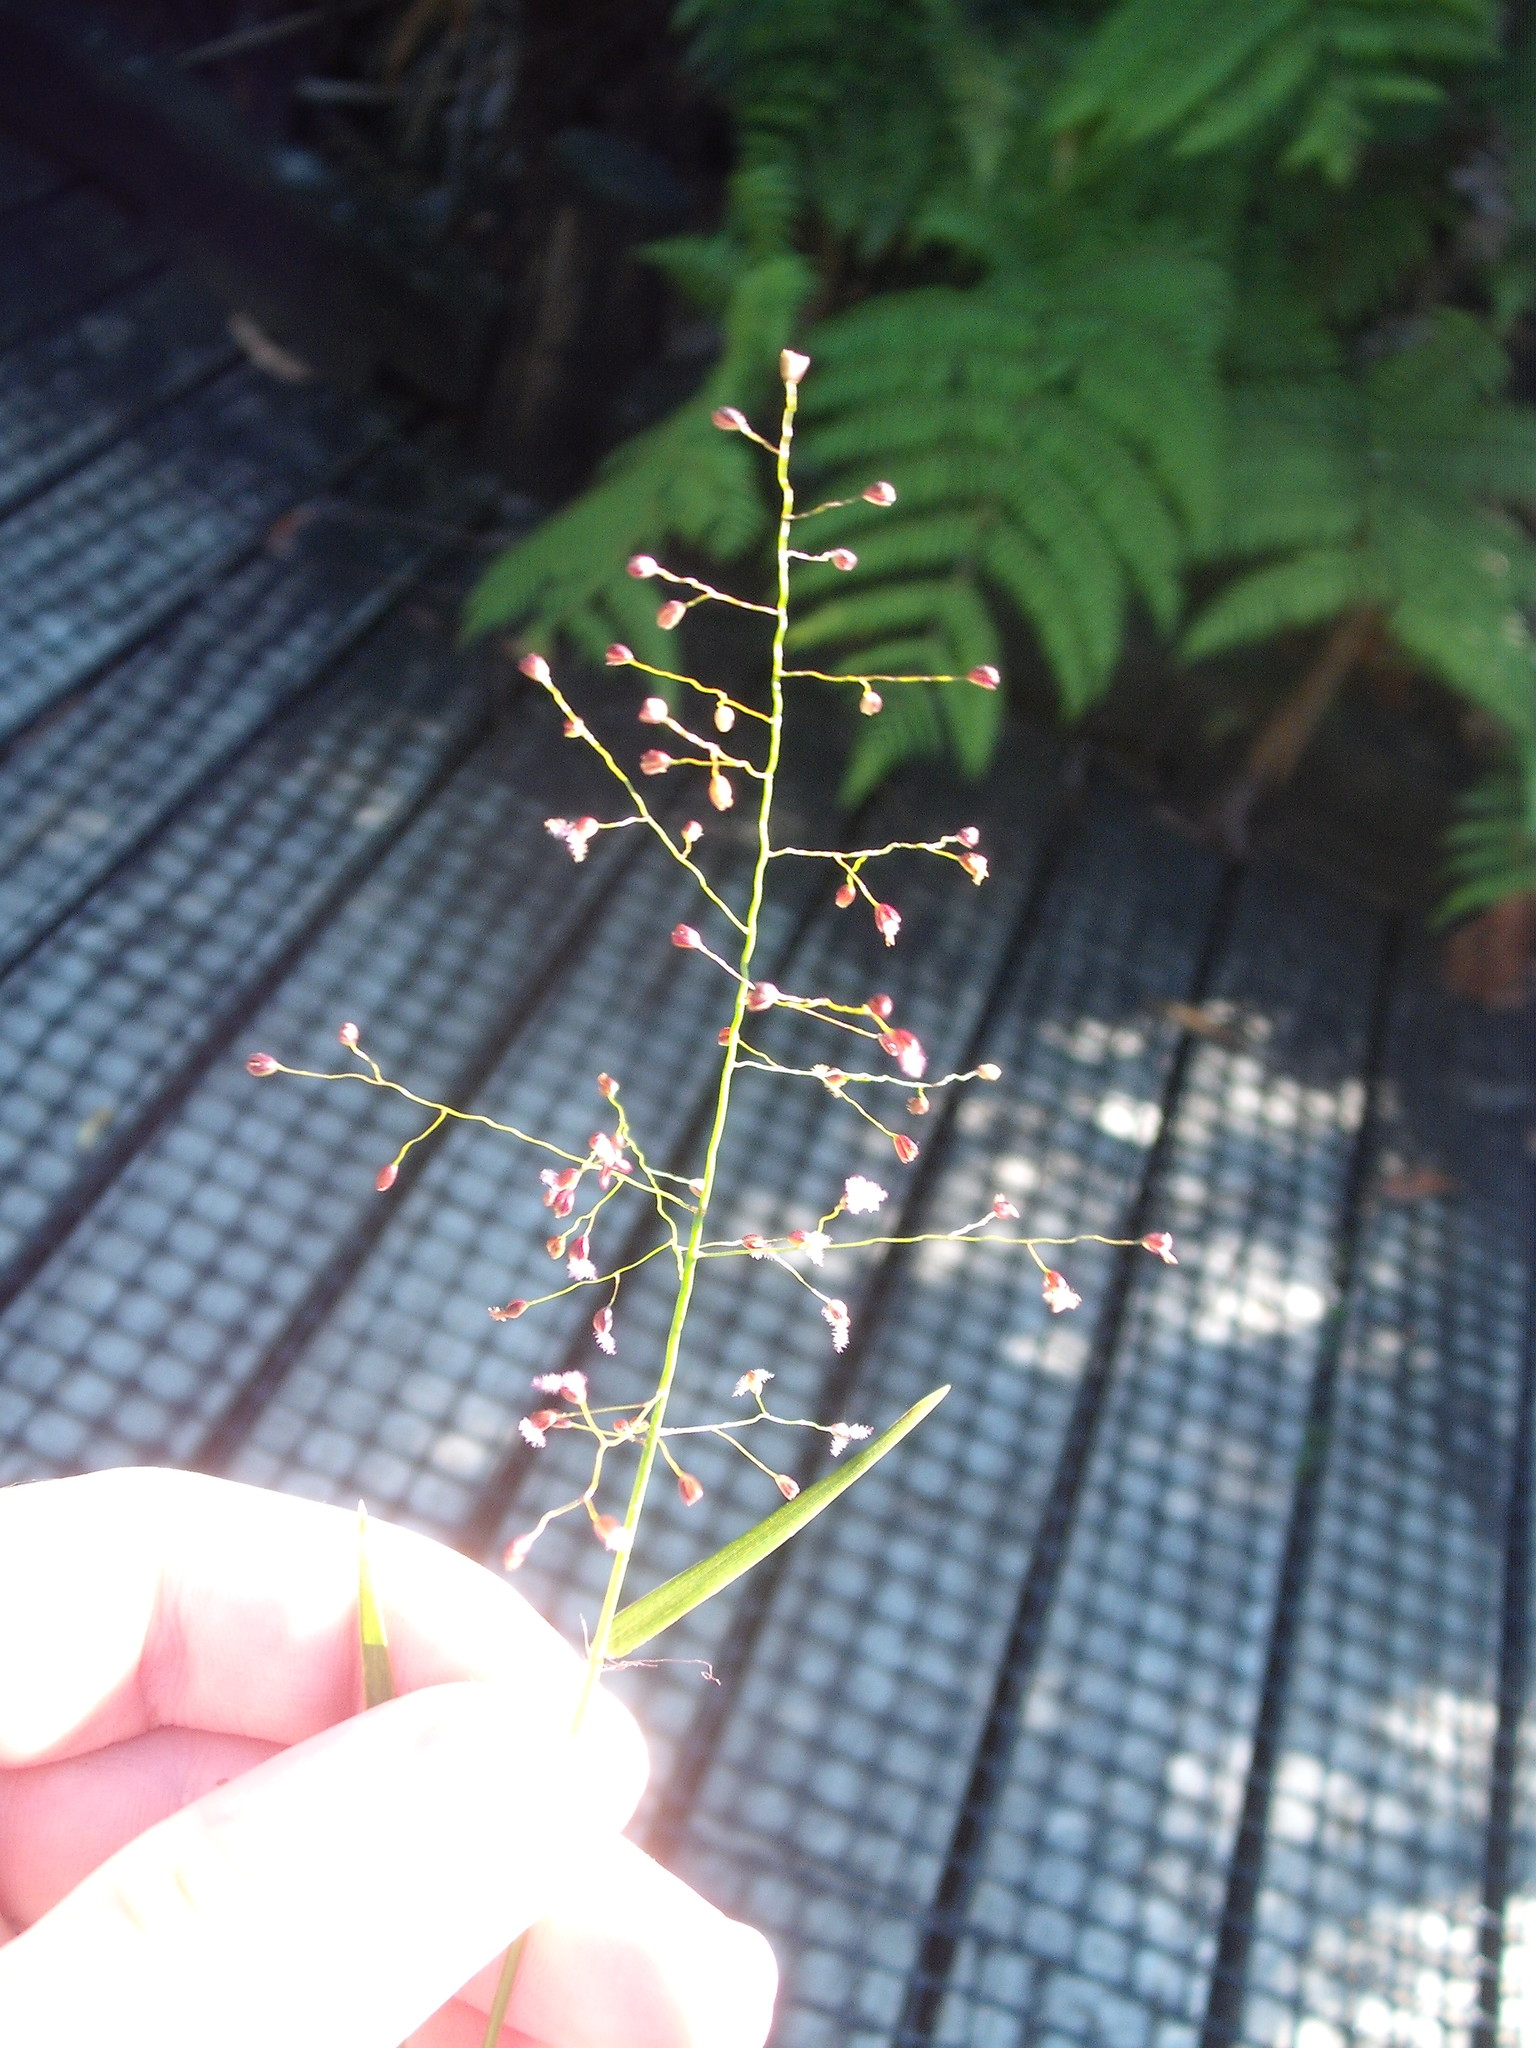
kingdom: Plantae
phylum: Tracheophyta
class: Liliopsida
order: Poales
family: Poaceae
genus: Isachne
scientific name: Isachne globosa
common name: Swamp millet
